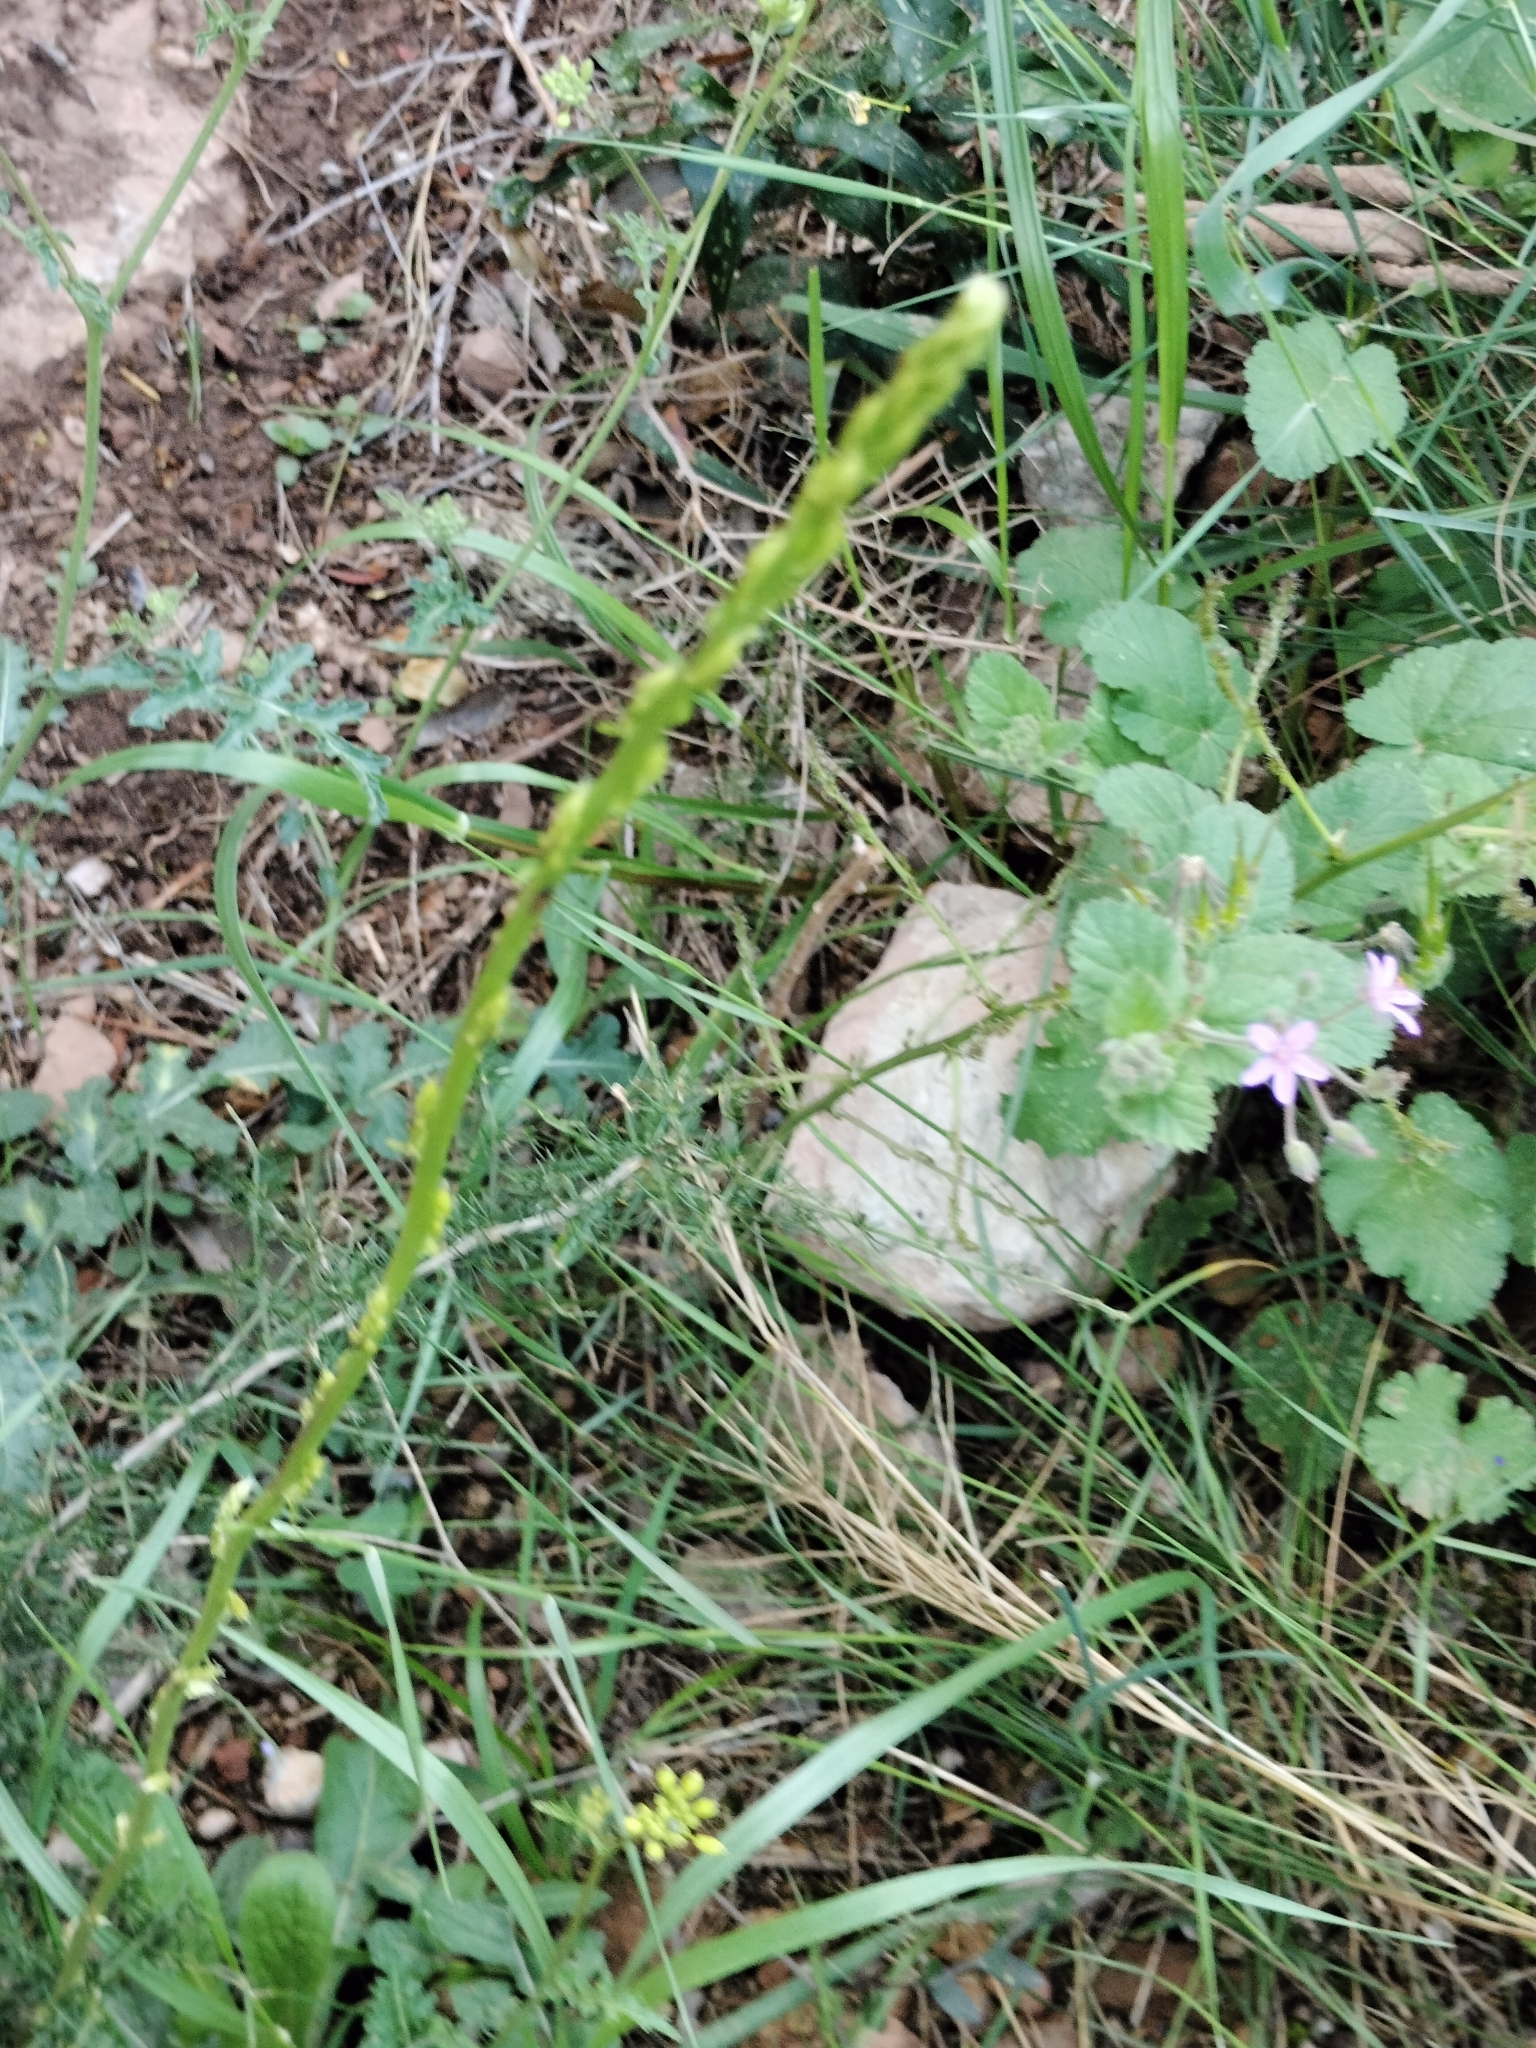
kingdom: Plantae
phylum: Tracheophyta
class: Magnoliopsida
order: Geraniales
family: Geraniaceae
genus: Erodium
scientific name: Erodium malacoides
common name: Soft stork's-bill
